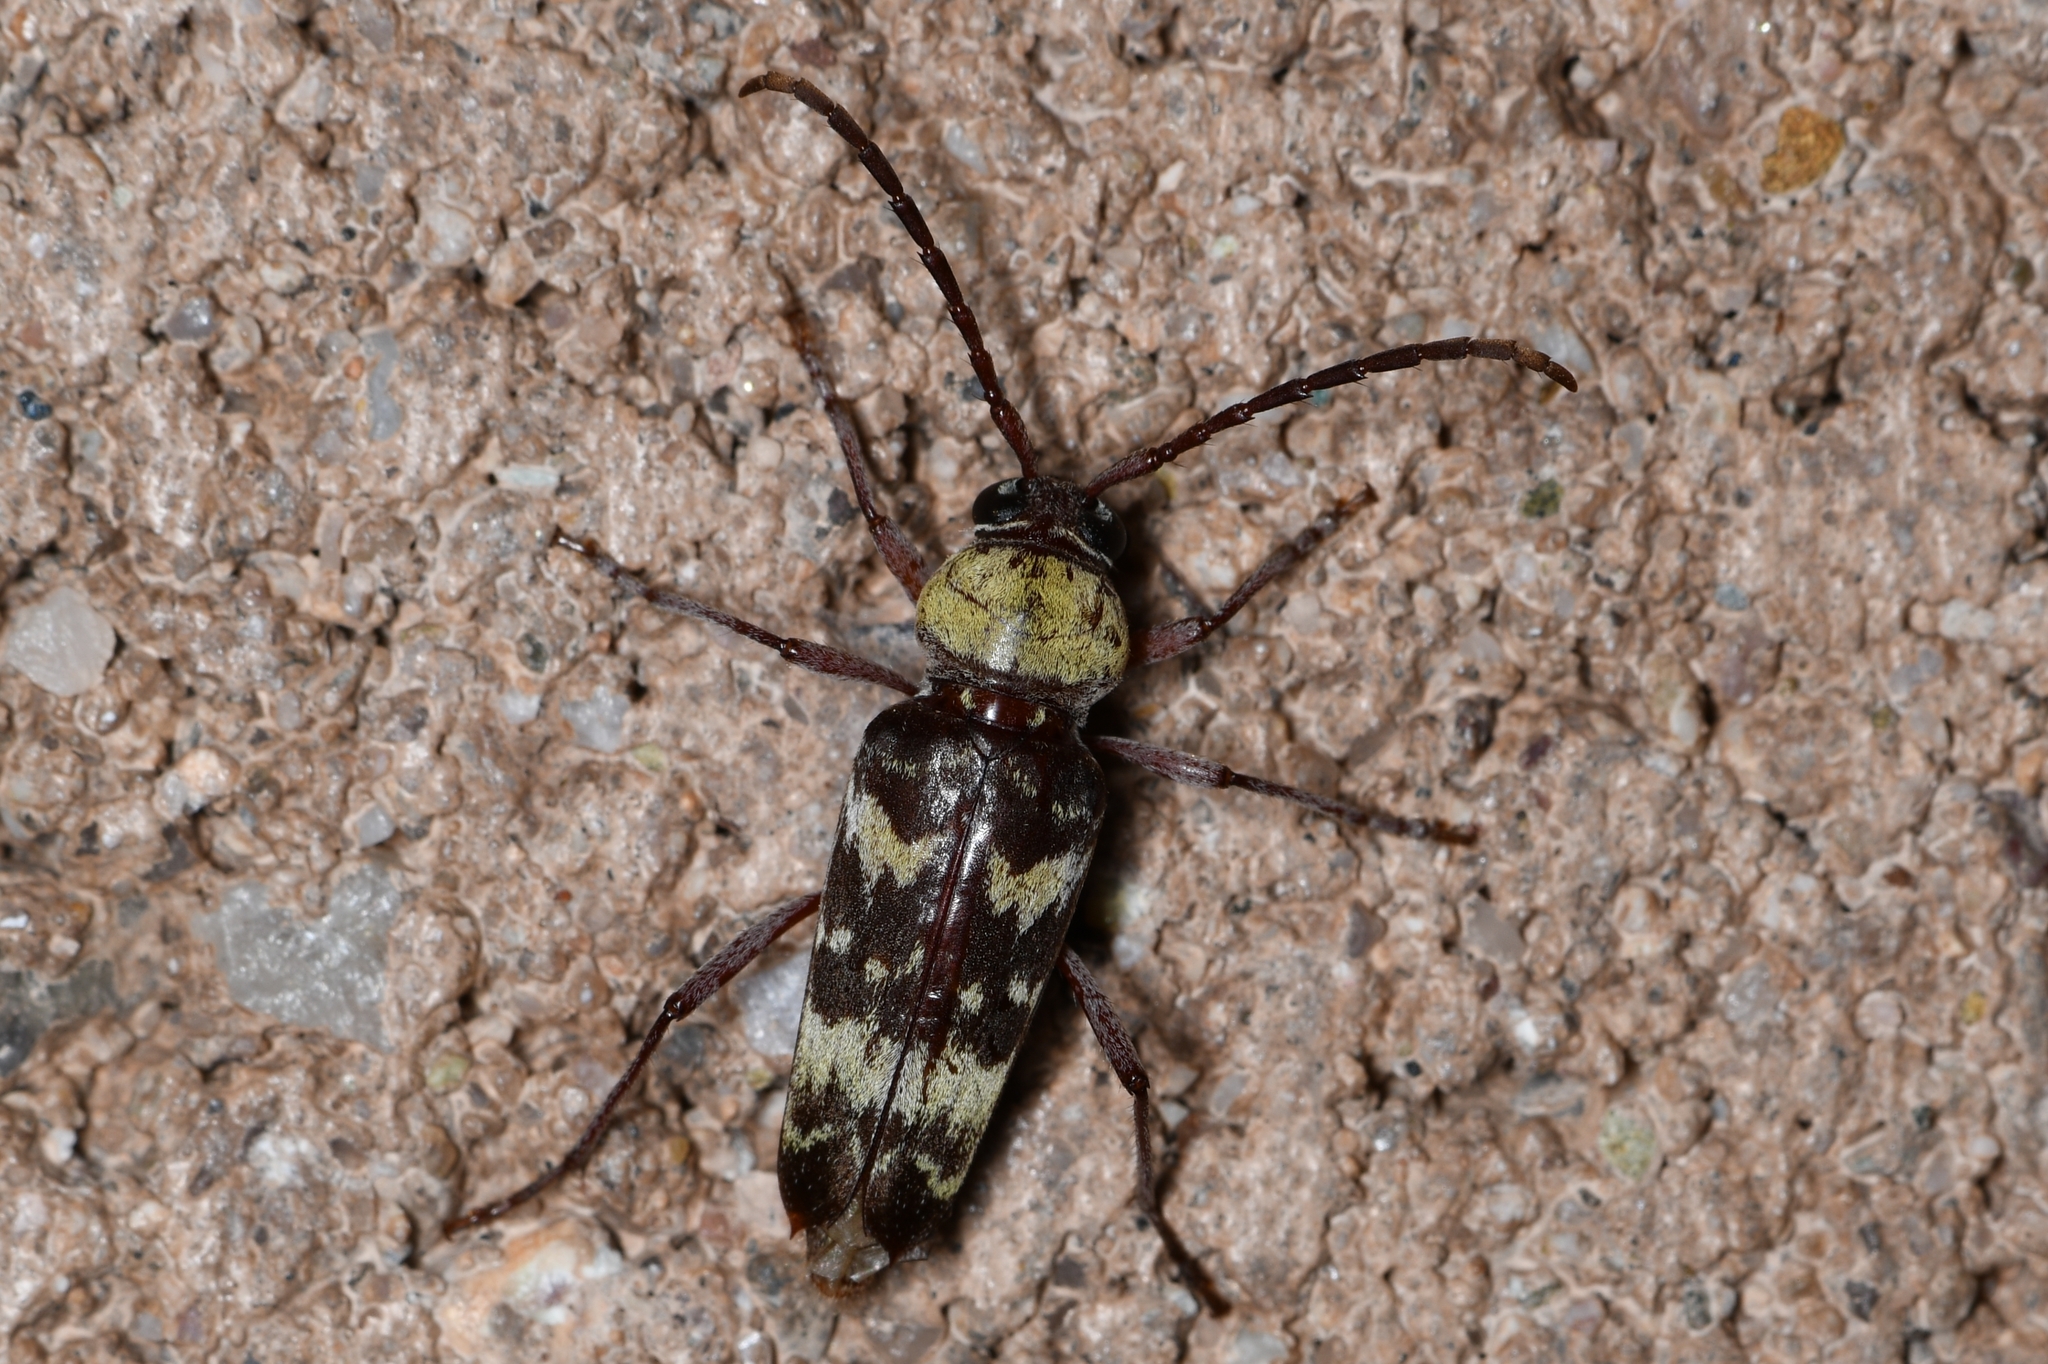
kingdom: Animalia
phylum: Arthropoda
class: Insecta
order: Coleoptera
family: Cerambycidae
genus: Megacyllene
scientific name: Megacyllene antennata
